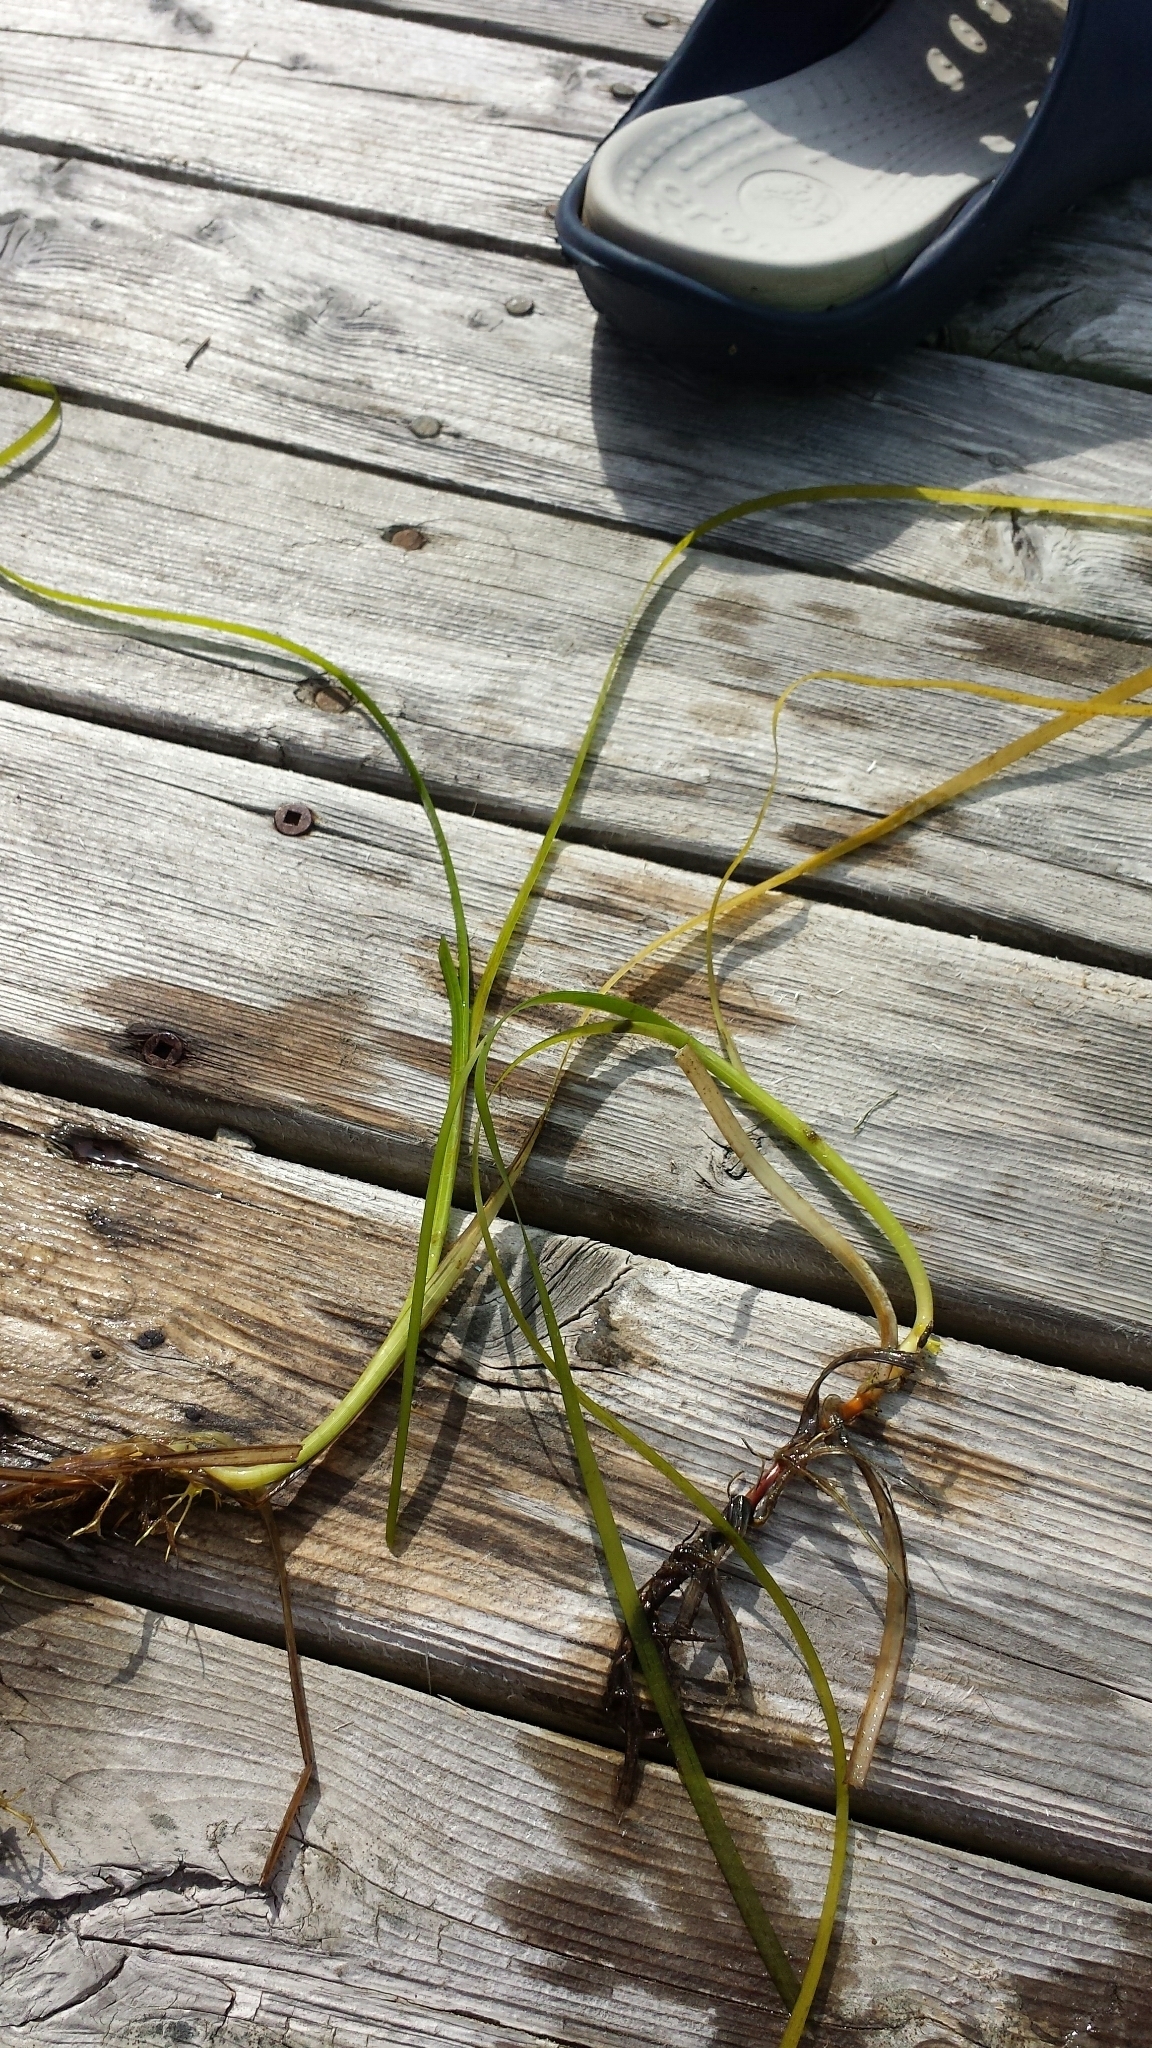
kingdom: Plantae
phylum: Tracheophyta
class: Liliopsida
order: Alismatales
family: Zosteraceae
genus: Zostera
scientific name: Zostera marina
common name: Eelgrass
